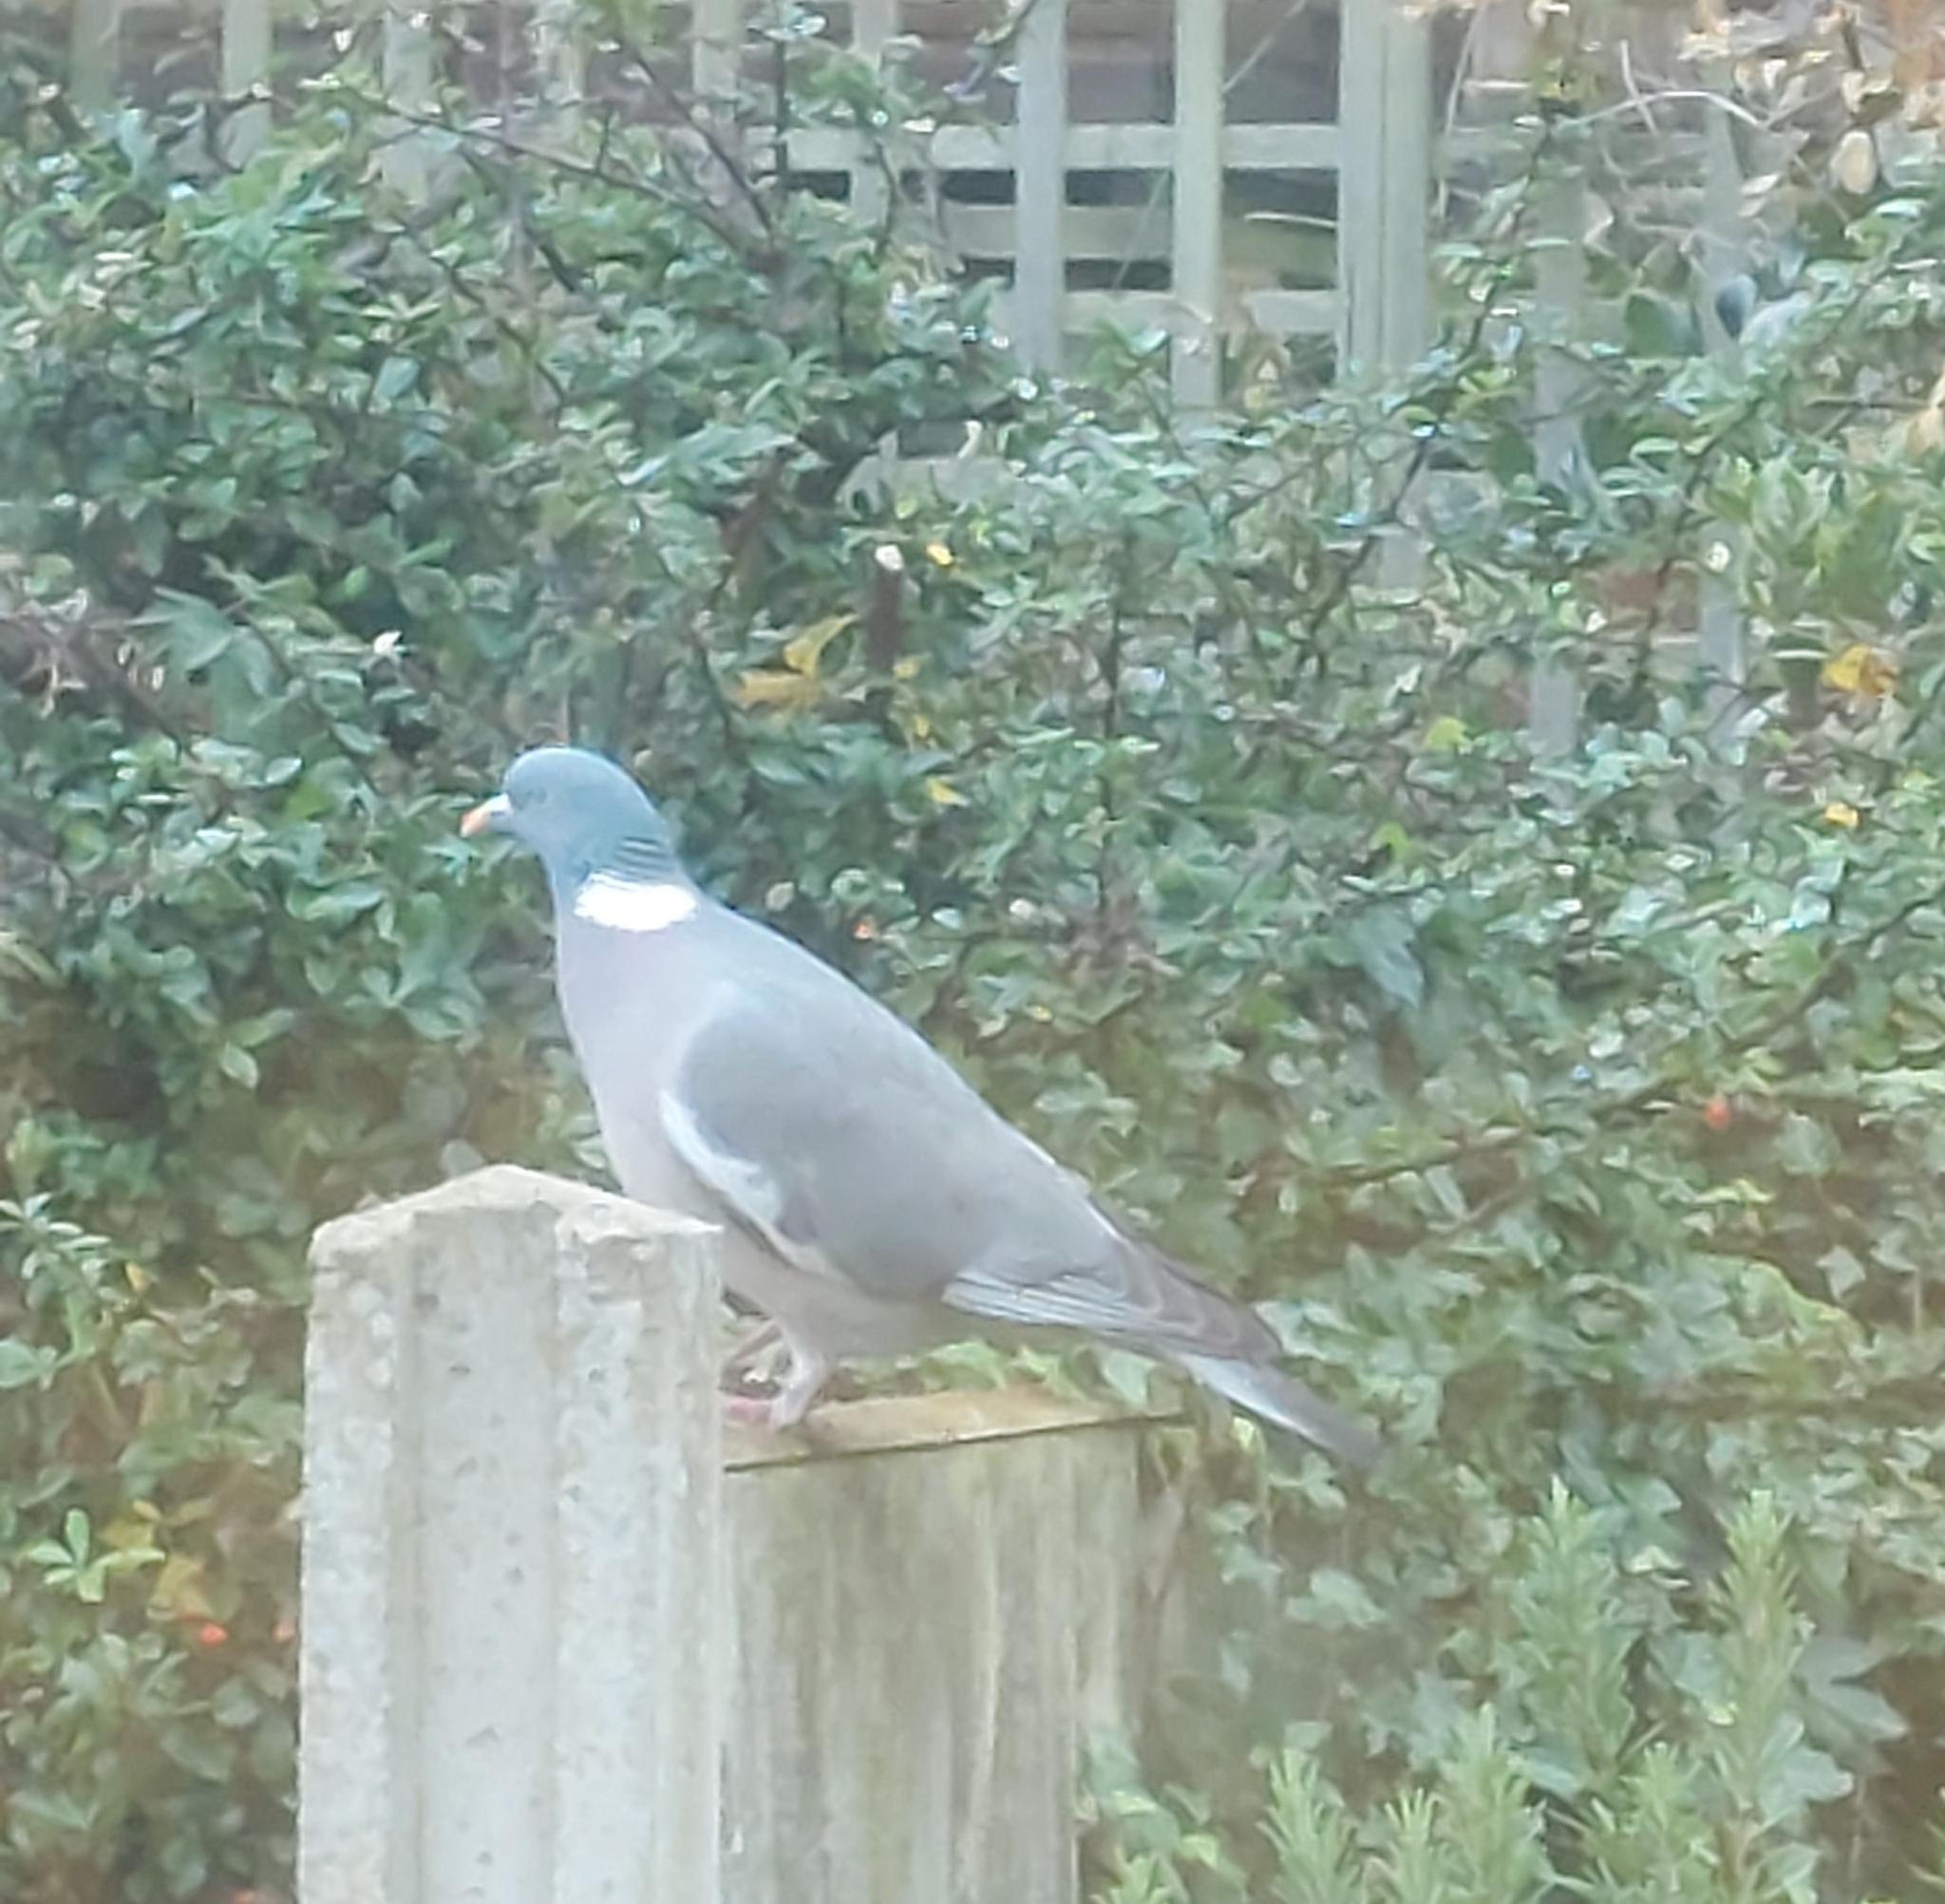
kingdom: Animalia
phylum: Chordata
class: Aves
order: Columbiformes
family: Columbidae
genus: Columba
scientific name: Columba palumbus
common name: Common wood pigeon
